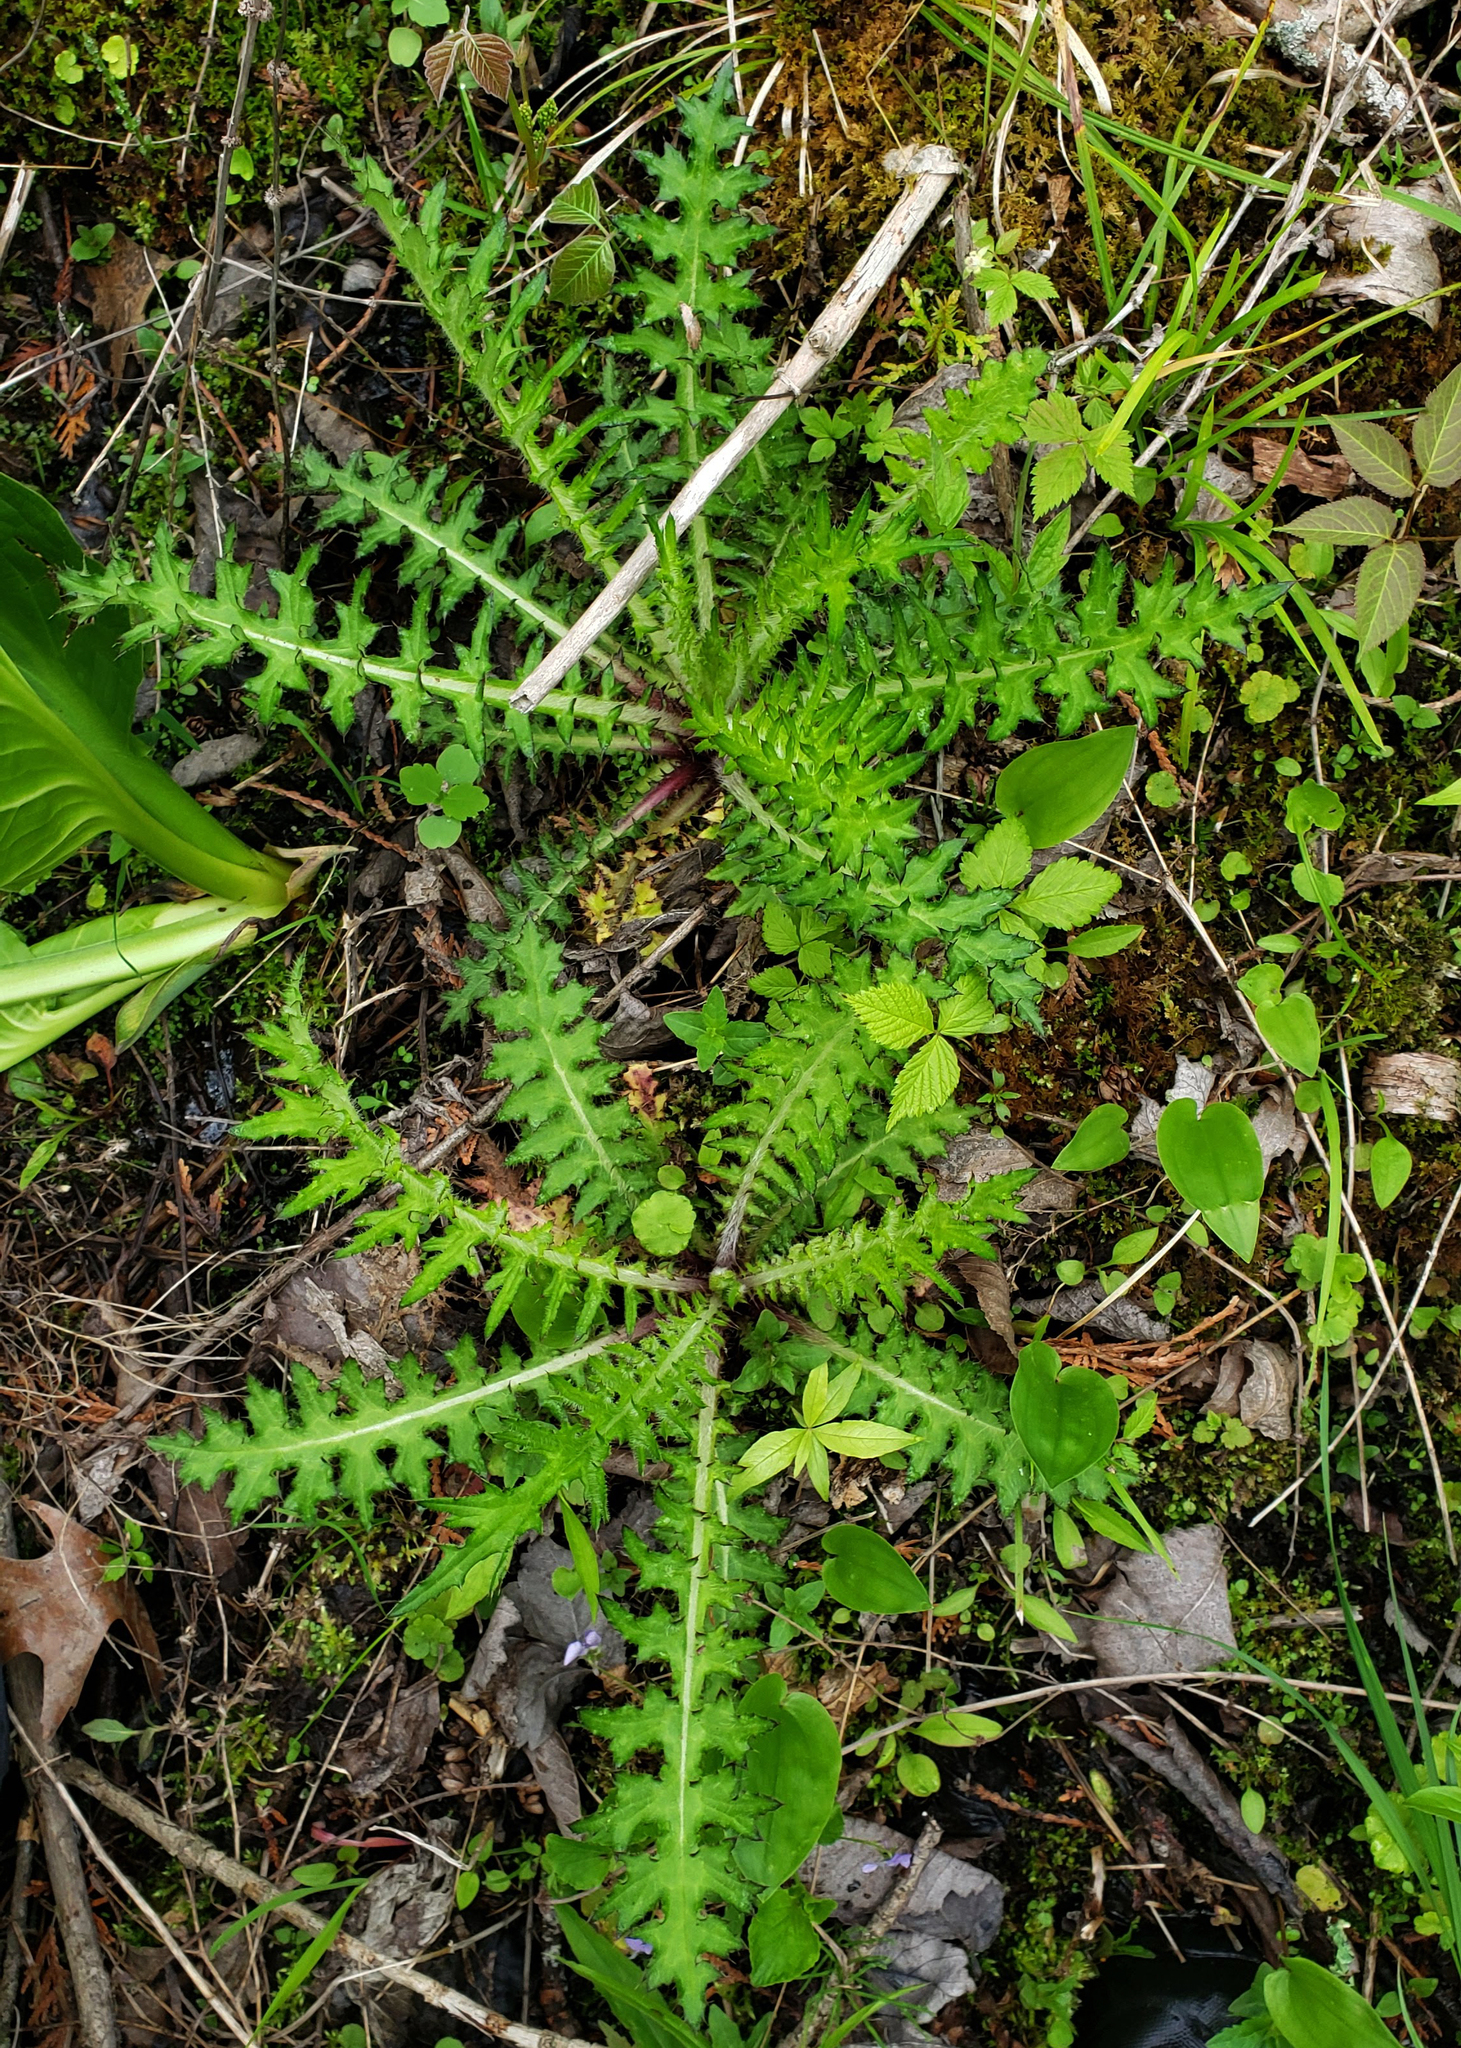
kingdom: Plantae
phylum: Tracheophyta
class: Magnoliopsida
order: Asterales
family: Asteraceae
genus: Cirsium
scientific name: Cirsium muticum
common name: Dunce-nettle
